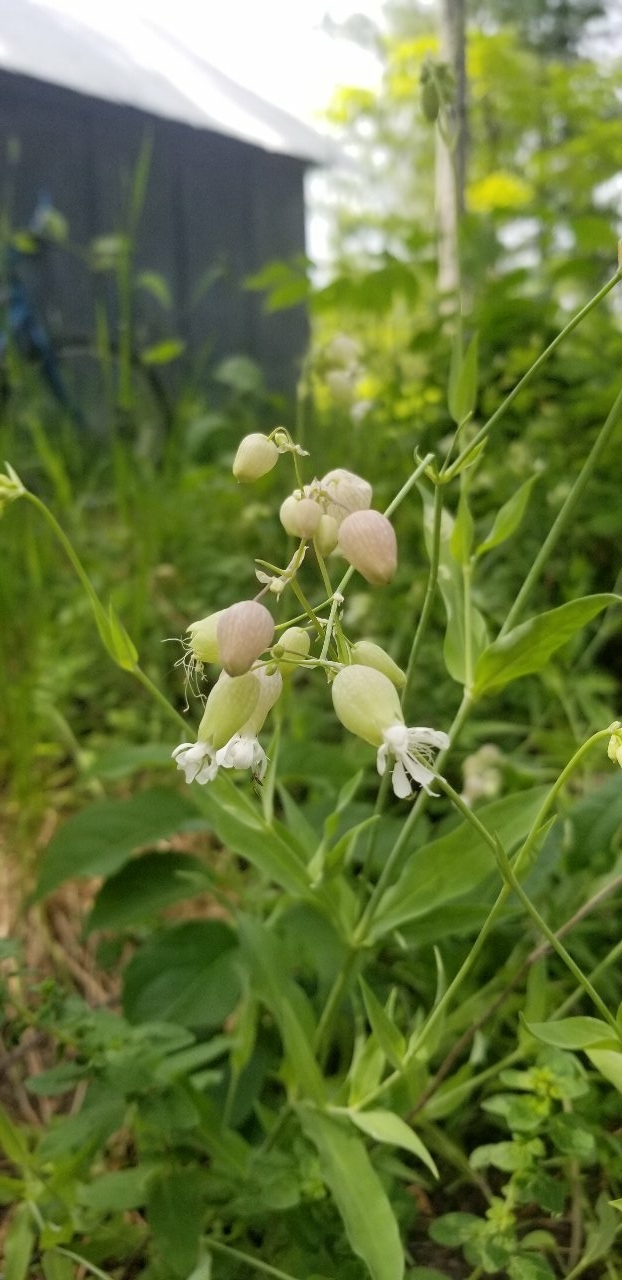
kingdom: Plantae
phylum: Tracheophyta
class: Magnoliopsida
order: Caryophyllales
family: Caryophyllaceae
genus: Silene
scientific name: Silene vulgaris
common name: Bladder campion
